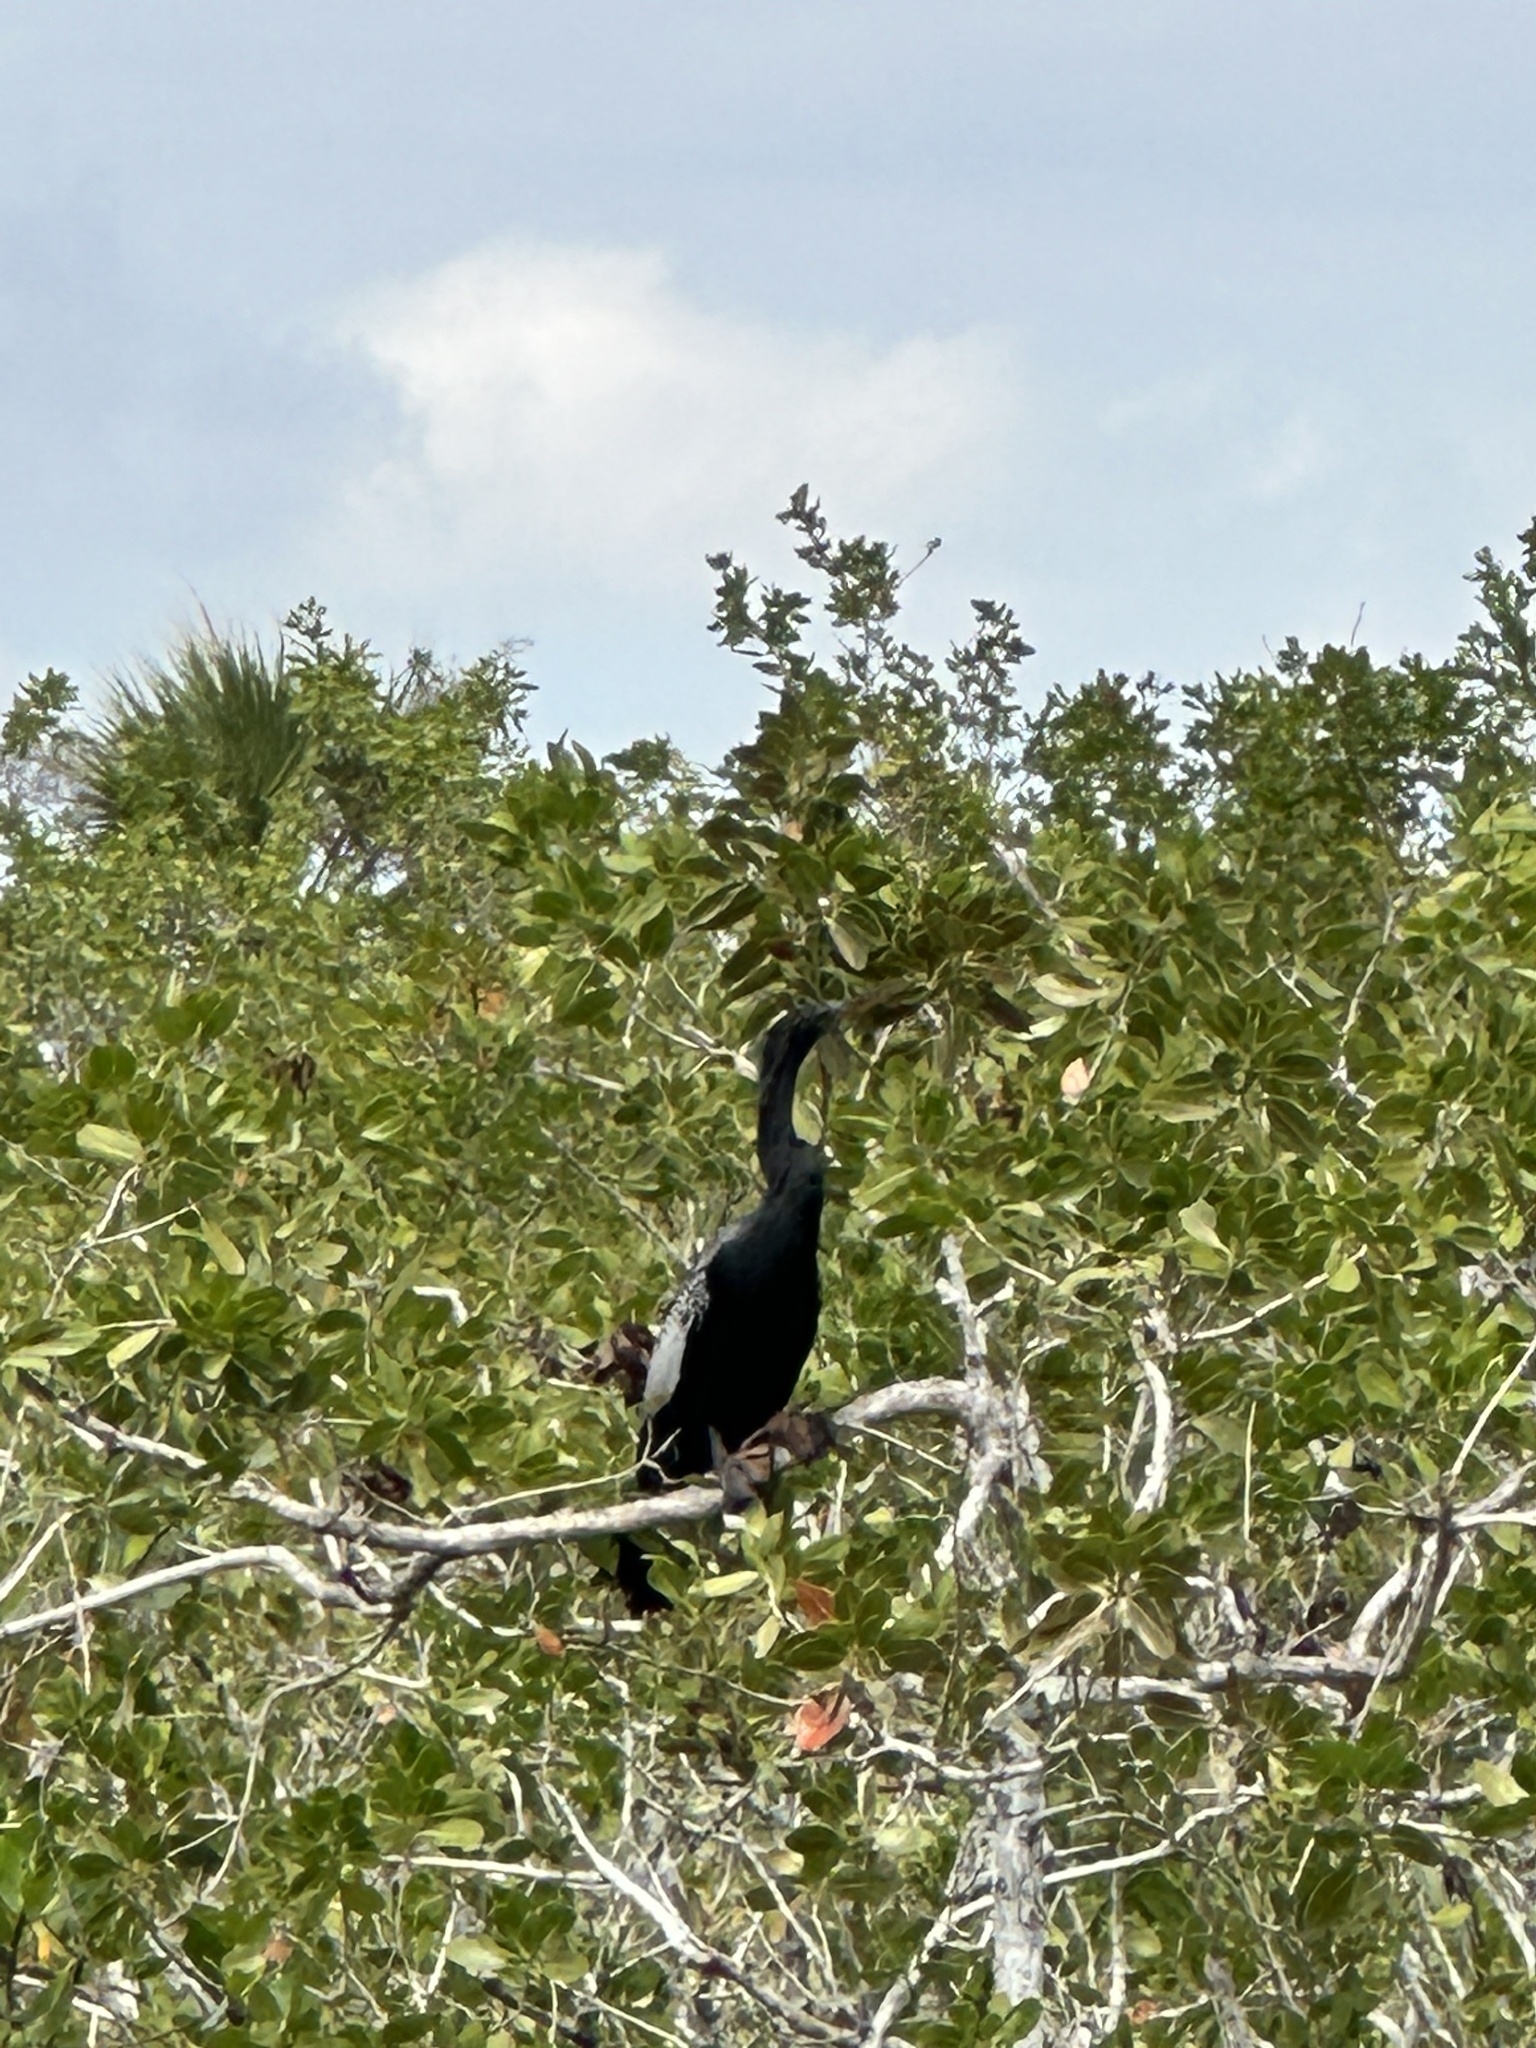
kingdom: Animalia
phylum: Chordata
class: Aves
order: Suliformes
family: Anhingidae
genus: Anhinga
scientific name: Anhinga anhinga
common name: Anhinga
